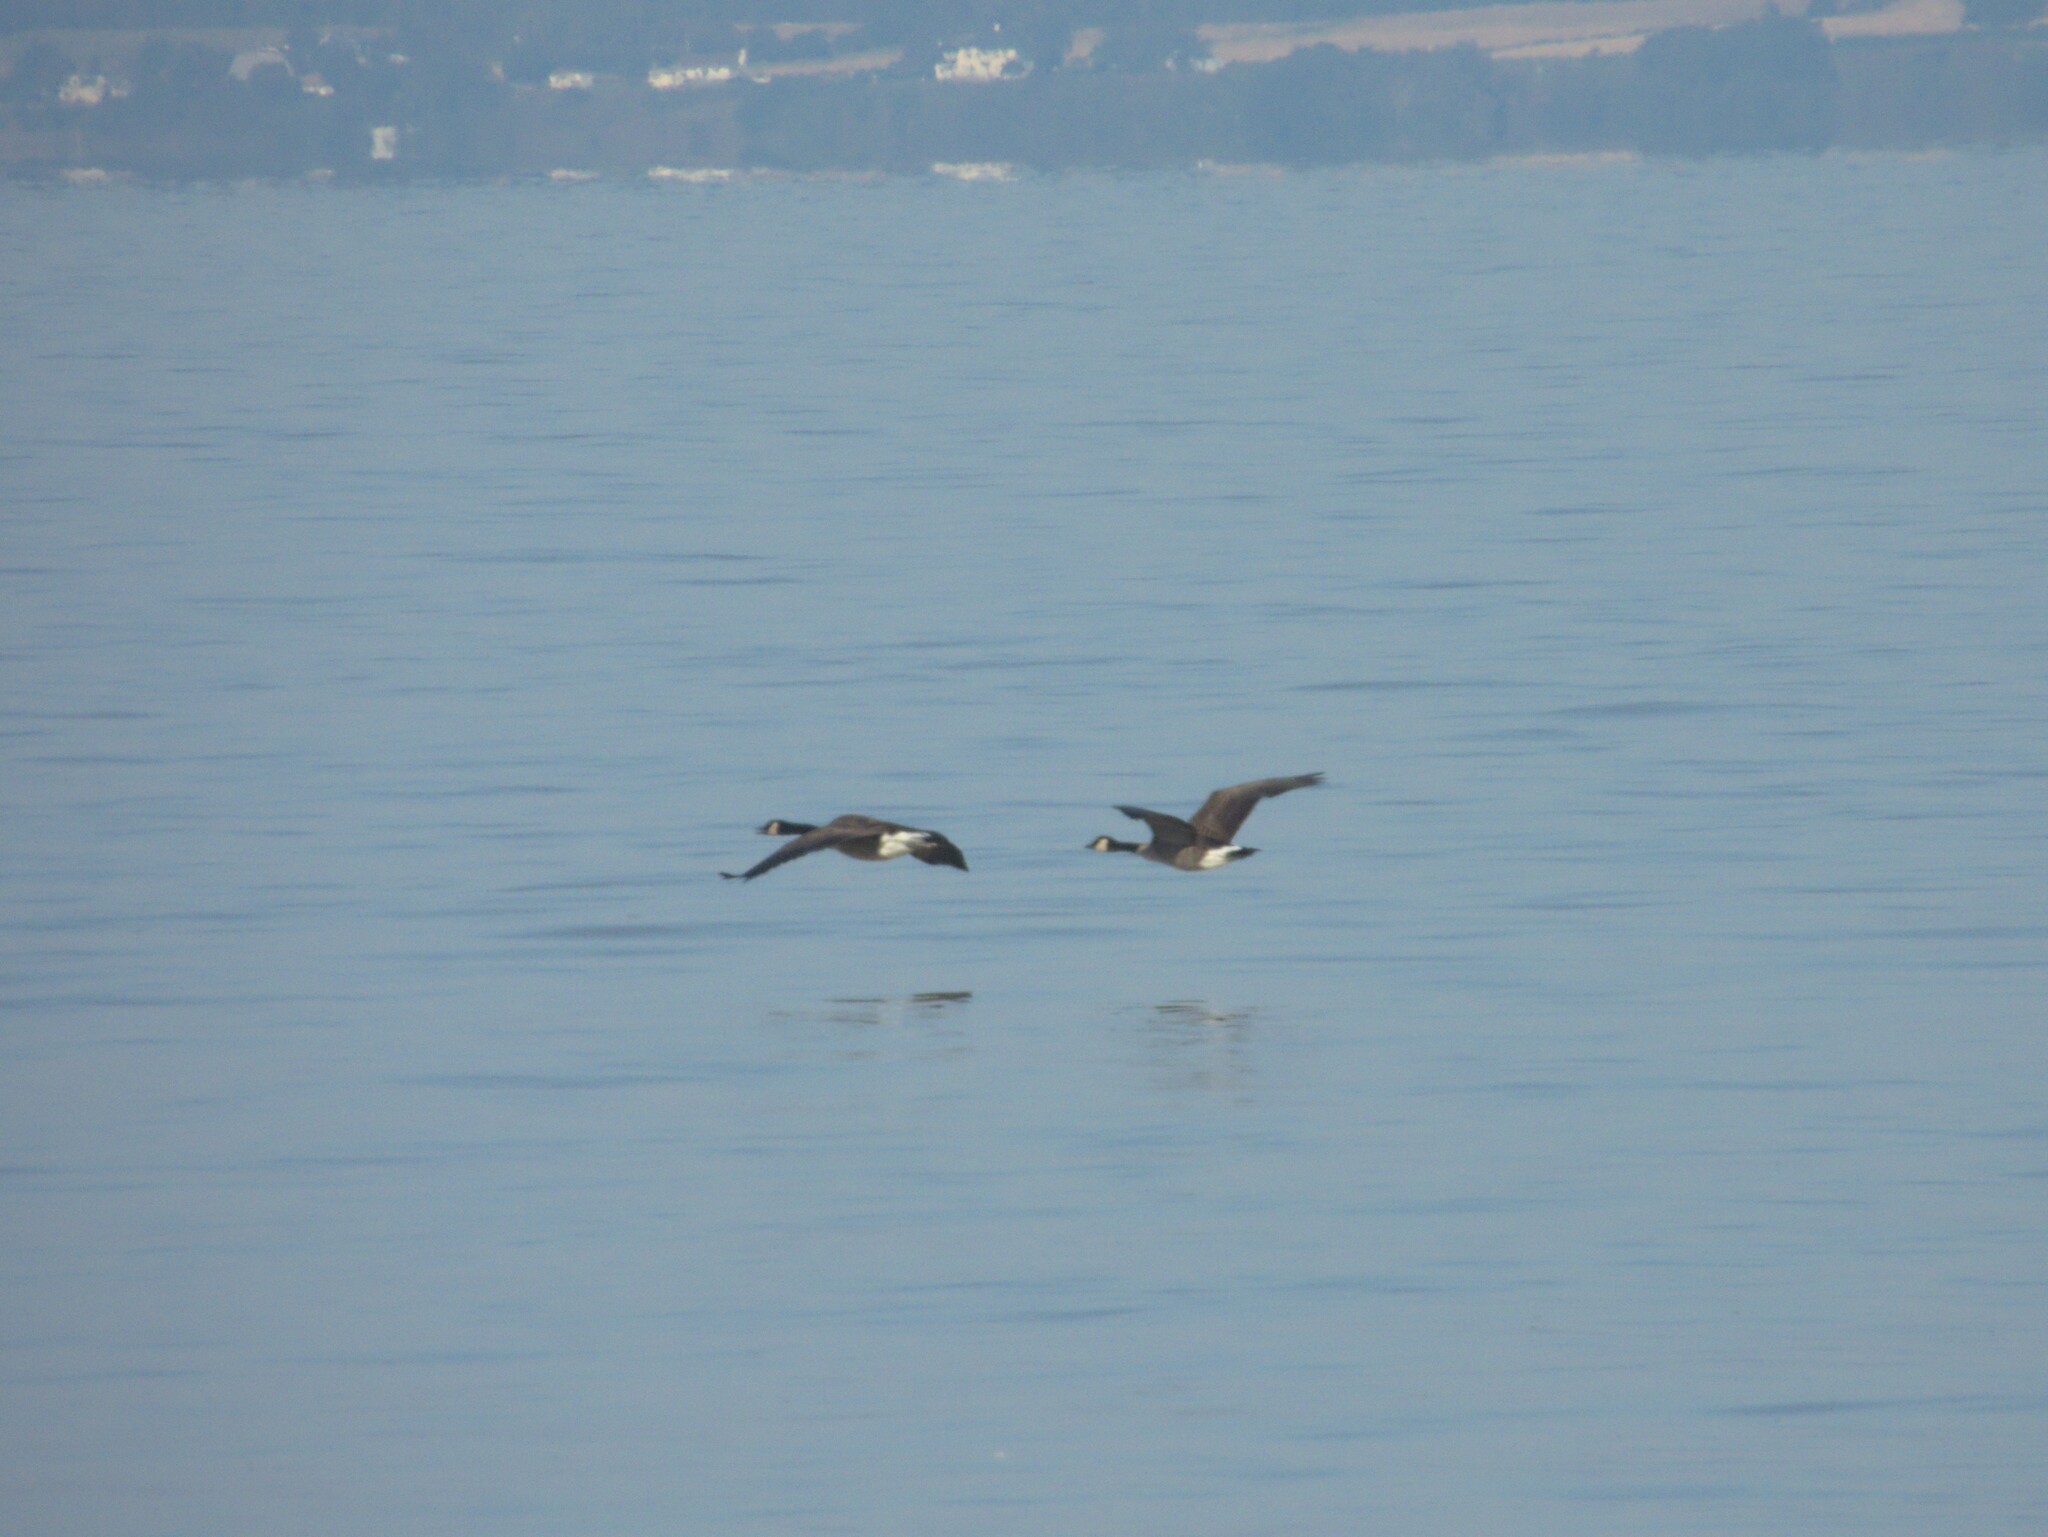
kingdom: Animalia
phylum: Chordata
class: Aves
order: Anseriformes
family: Anatidae
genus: Branta
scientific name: Branta canadensis
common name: Canada goose
